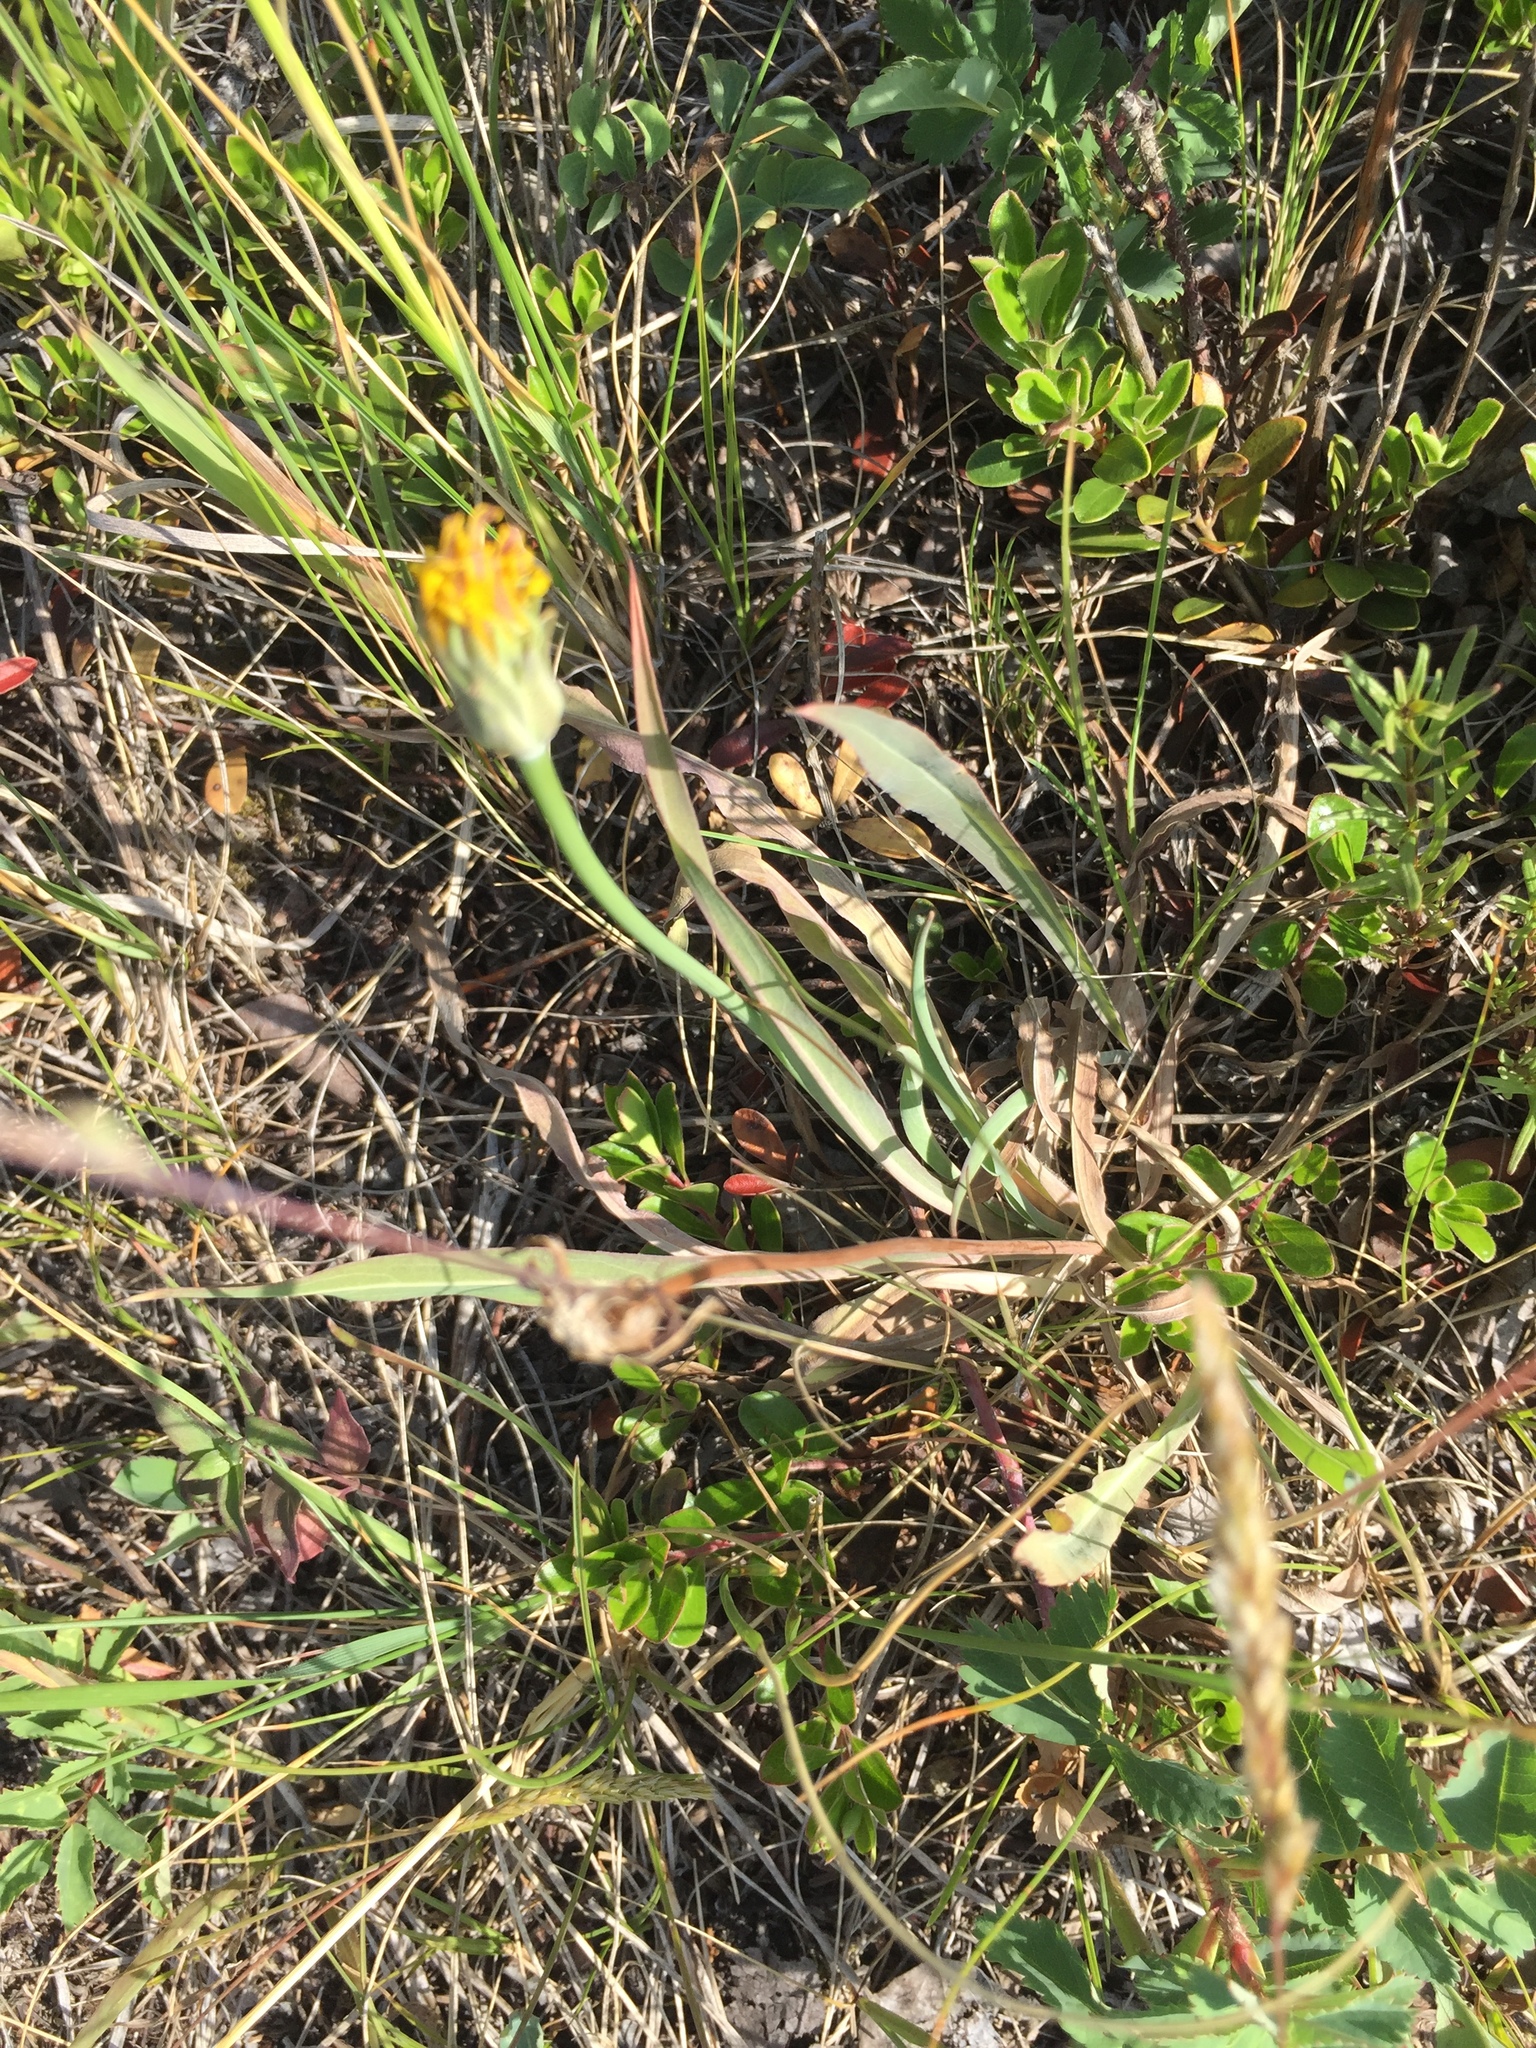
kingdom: Plantae
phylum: Tracheophyta
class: Magnoliopsida
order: Asterales
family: Asteraceae
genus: Agoseris
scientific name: Agoseris glauca
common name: Prairie agoseris
